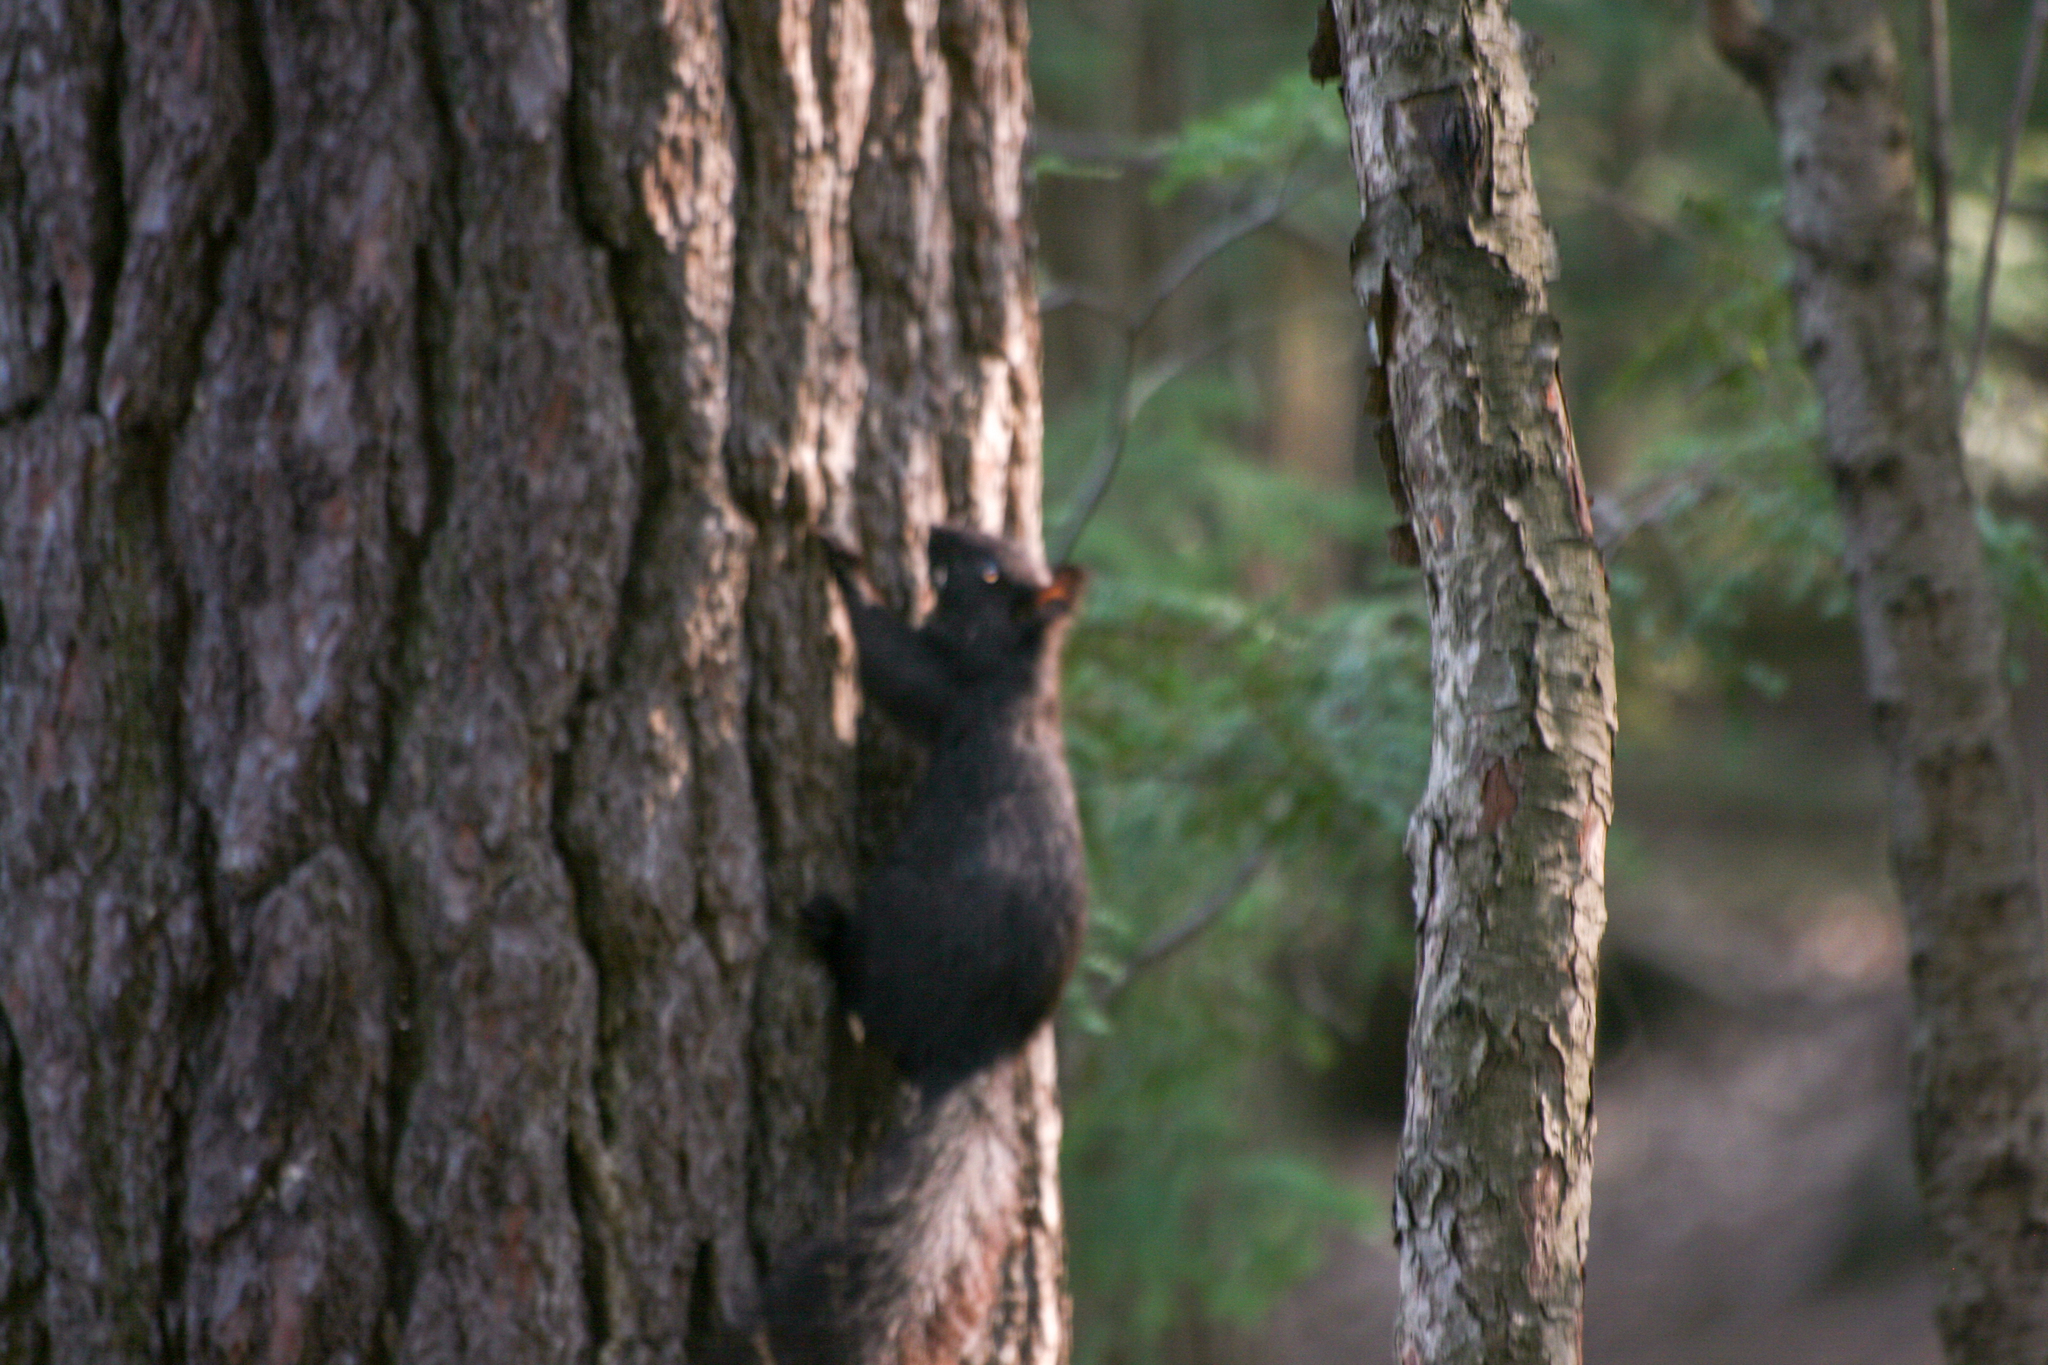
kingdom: Animalia
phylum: Chordata
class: Mammalia
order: Rodentia
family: Sciuridae
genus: Sciurus
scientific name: Sciurus carolinensis
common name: Eastern gray squirrel
